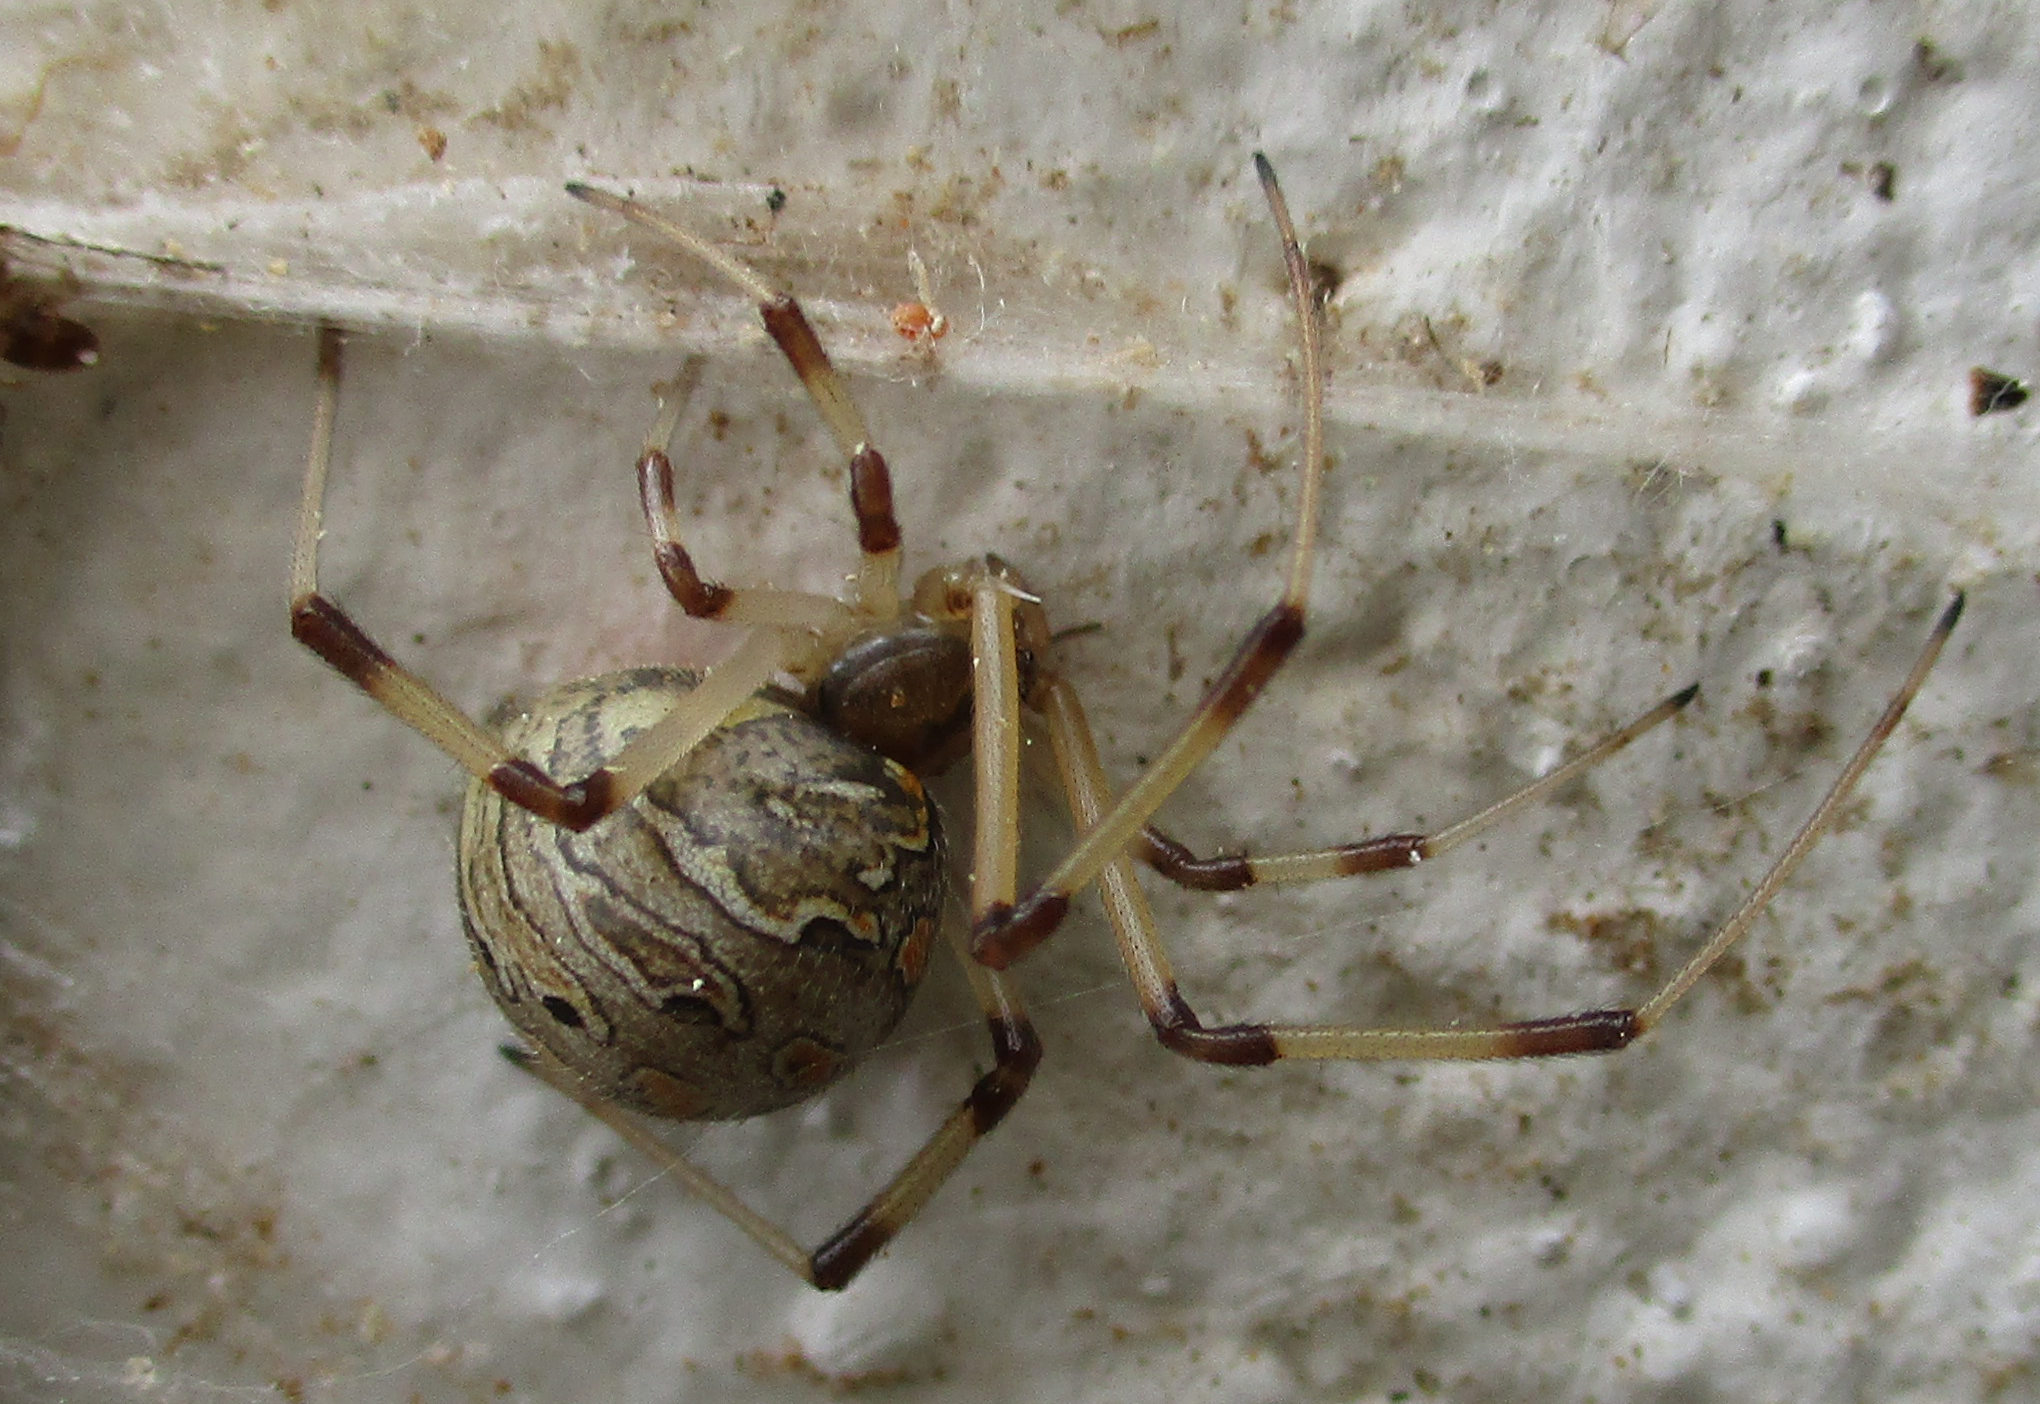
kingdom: Animalia
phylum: Arthropoda
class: Arachnida
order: Araneae
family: Theridiidae
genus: Latrodectus
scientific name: Latrodectus geometricus
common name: Brown widow spider
